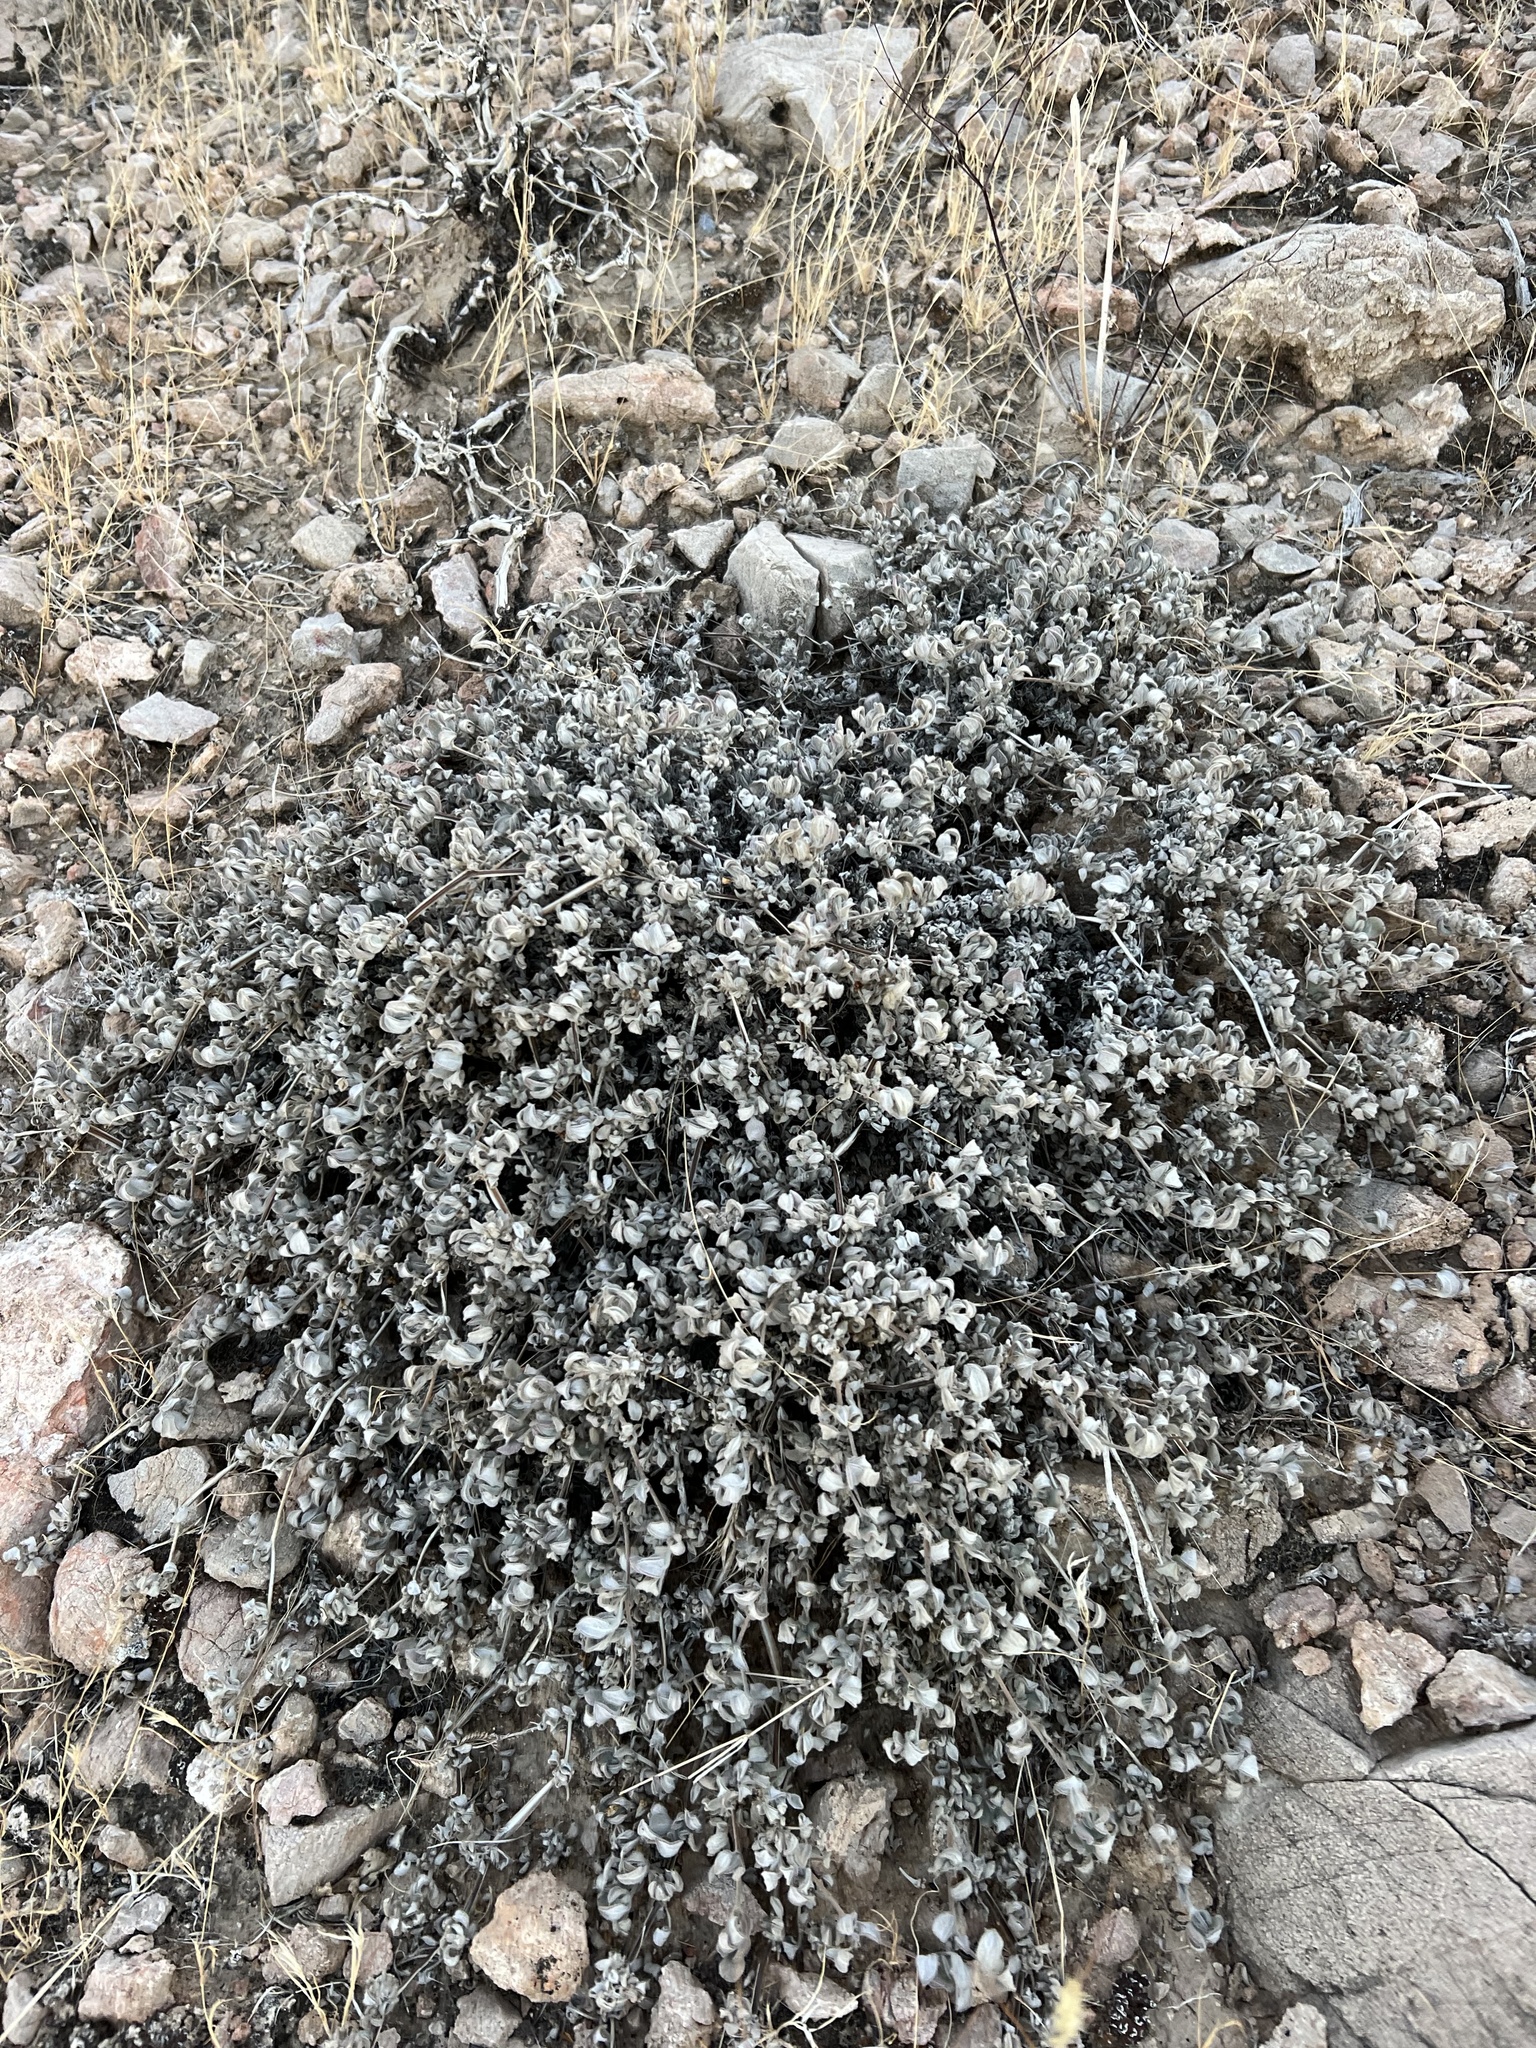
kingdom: Plantae
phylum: Tracheophyta
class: Magnoliopsida
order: Boraginales
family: Ehretiaceae
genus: Tiquilia
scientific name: Tiquilia canescens
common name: Hairy tiquilia
